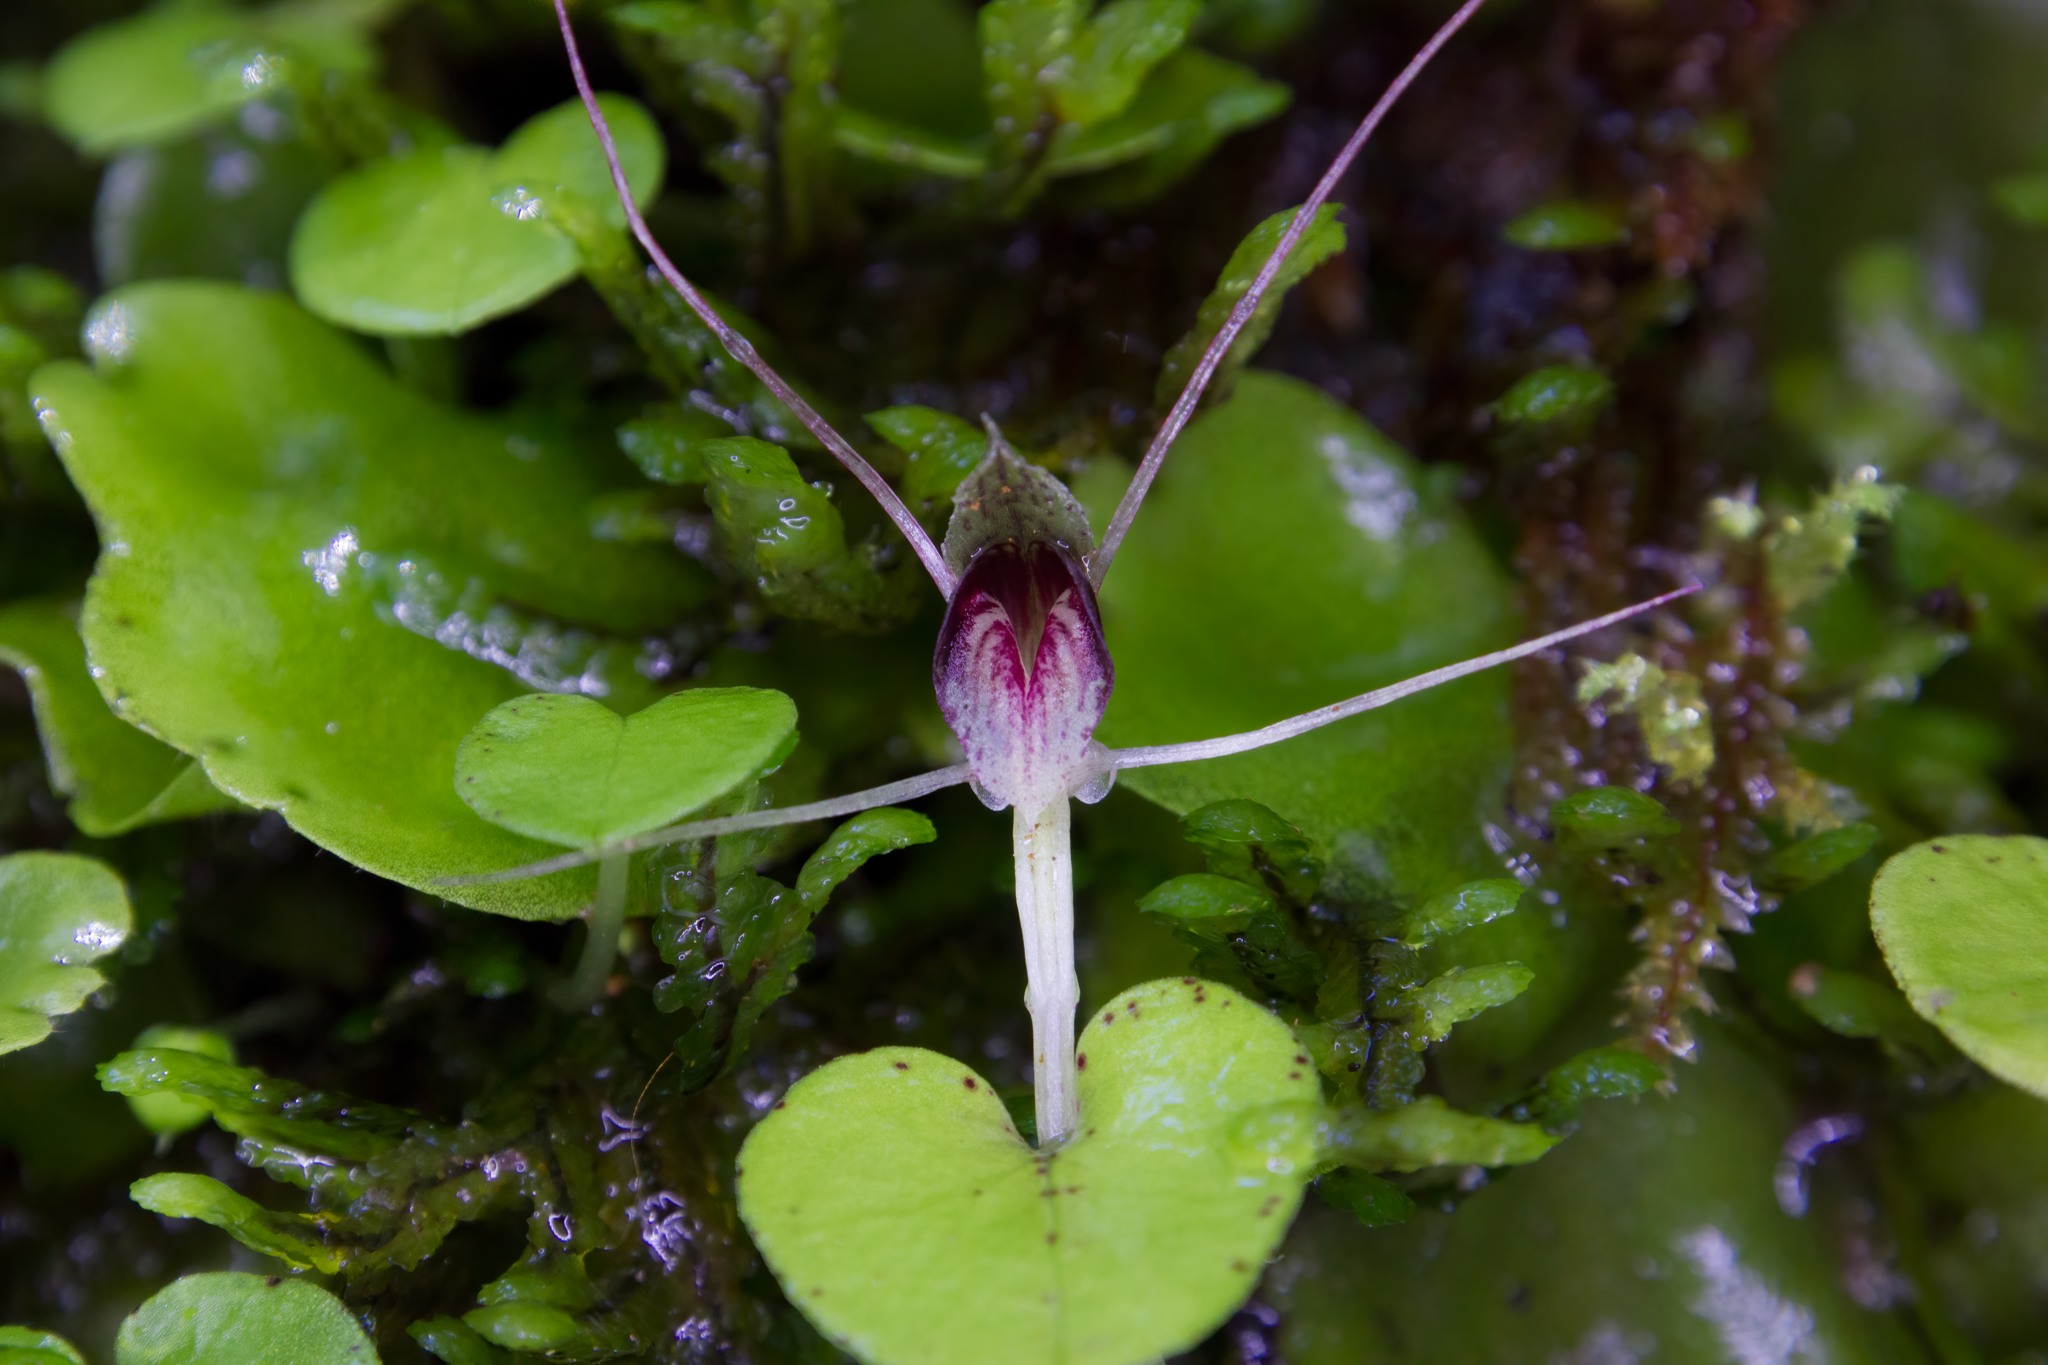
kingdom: Plantae
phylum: Tracheophyta
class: Liliopsida
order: Asparagales
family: Orchidaceae
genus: Corybas
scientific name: Corybas rivularis
